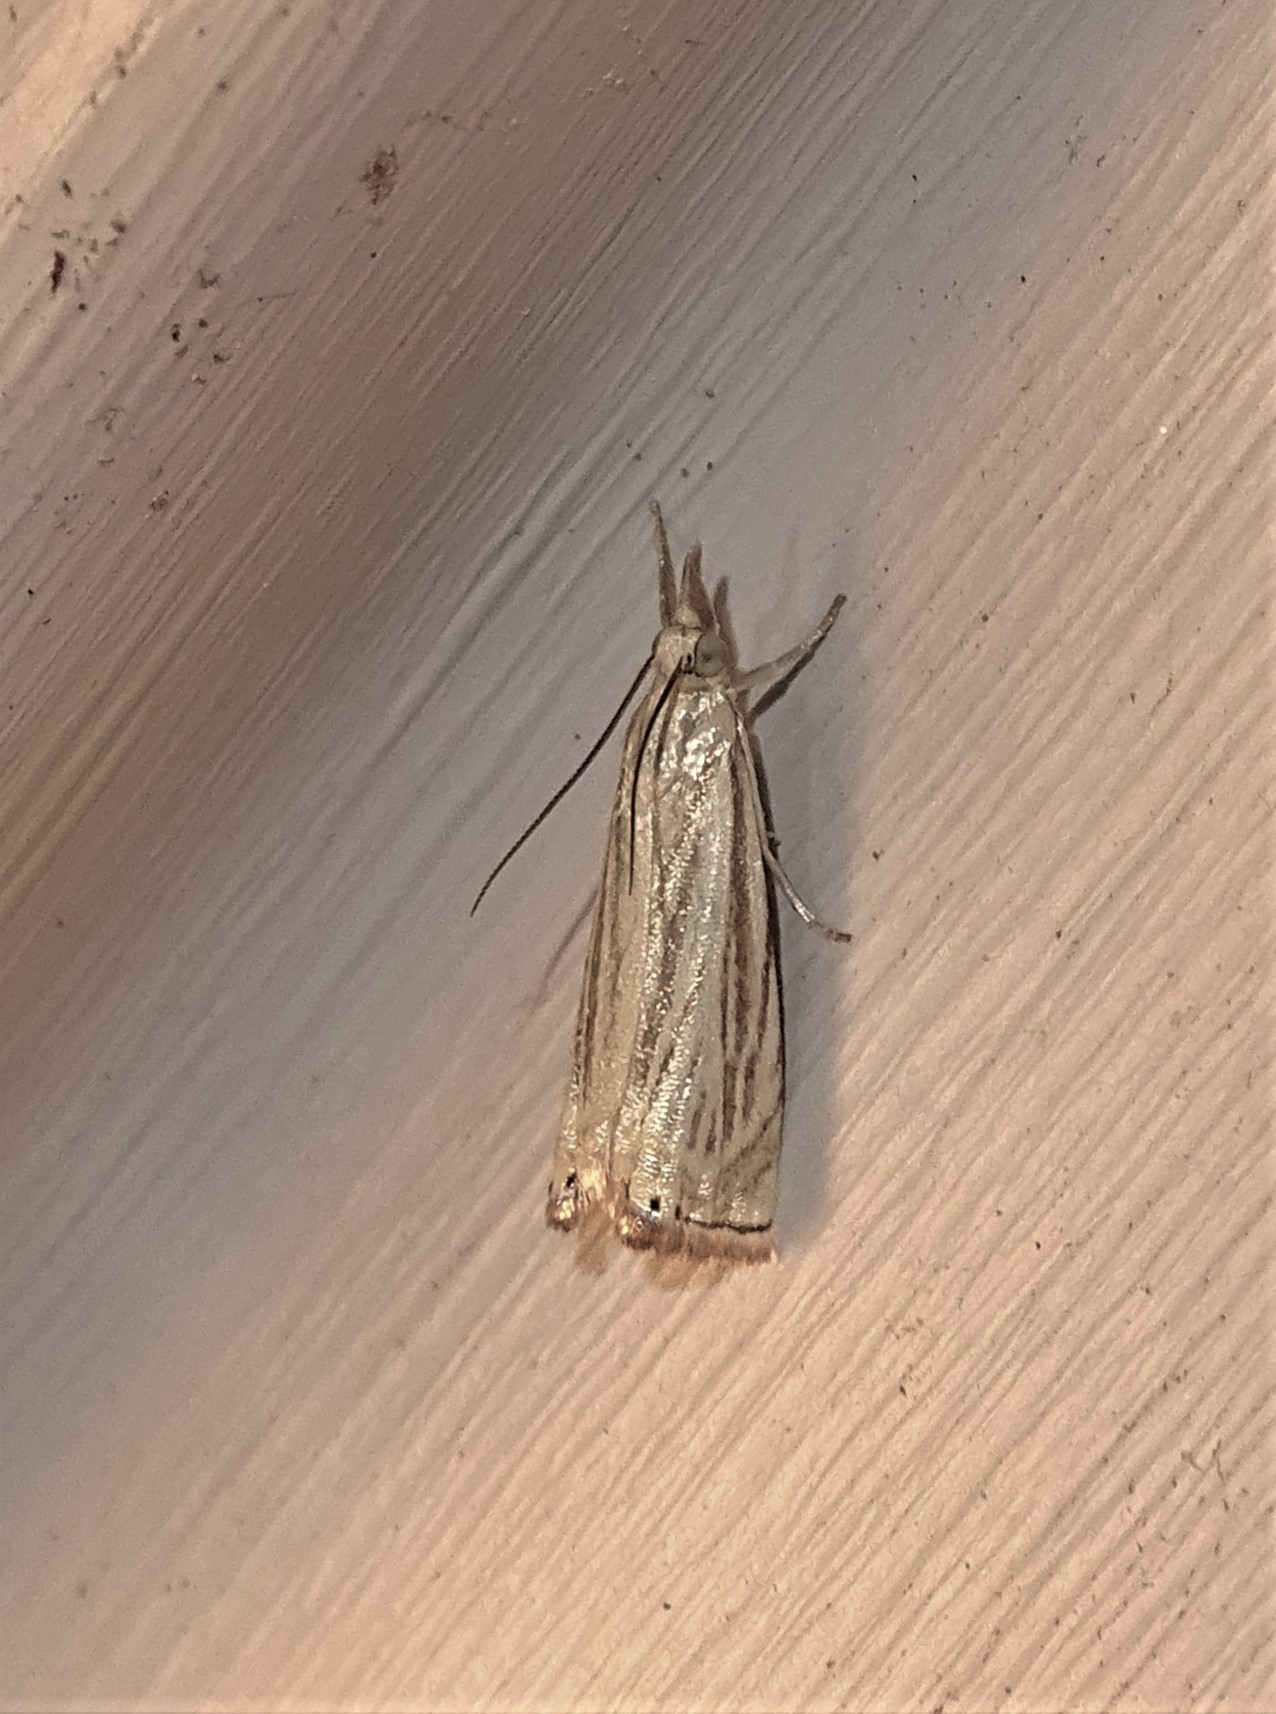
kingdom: Animalia
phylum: Arthropoda
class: Insecta
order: Lepidoptera
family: Crambidae
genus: Chrysoteuchia
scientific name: Chrysoteuchia topiarius
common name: Topiary grass-veneer
